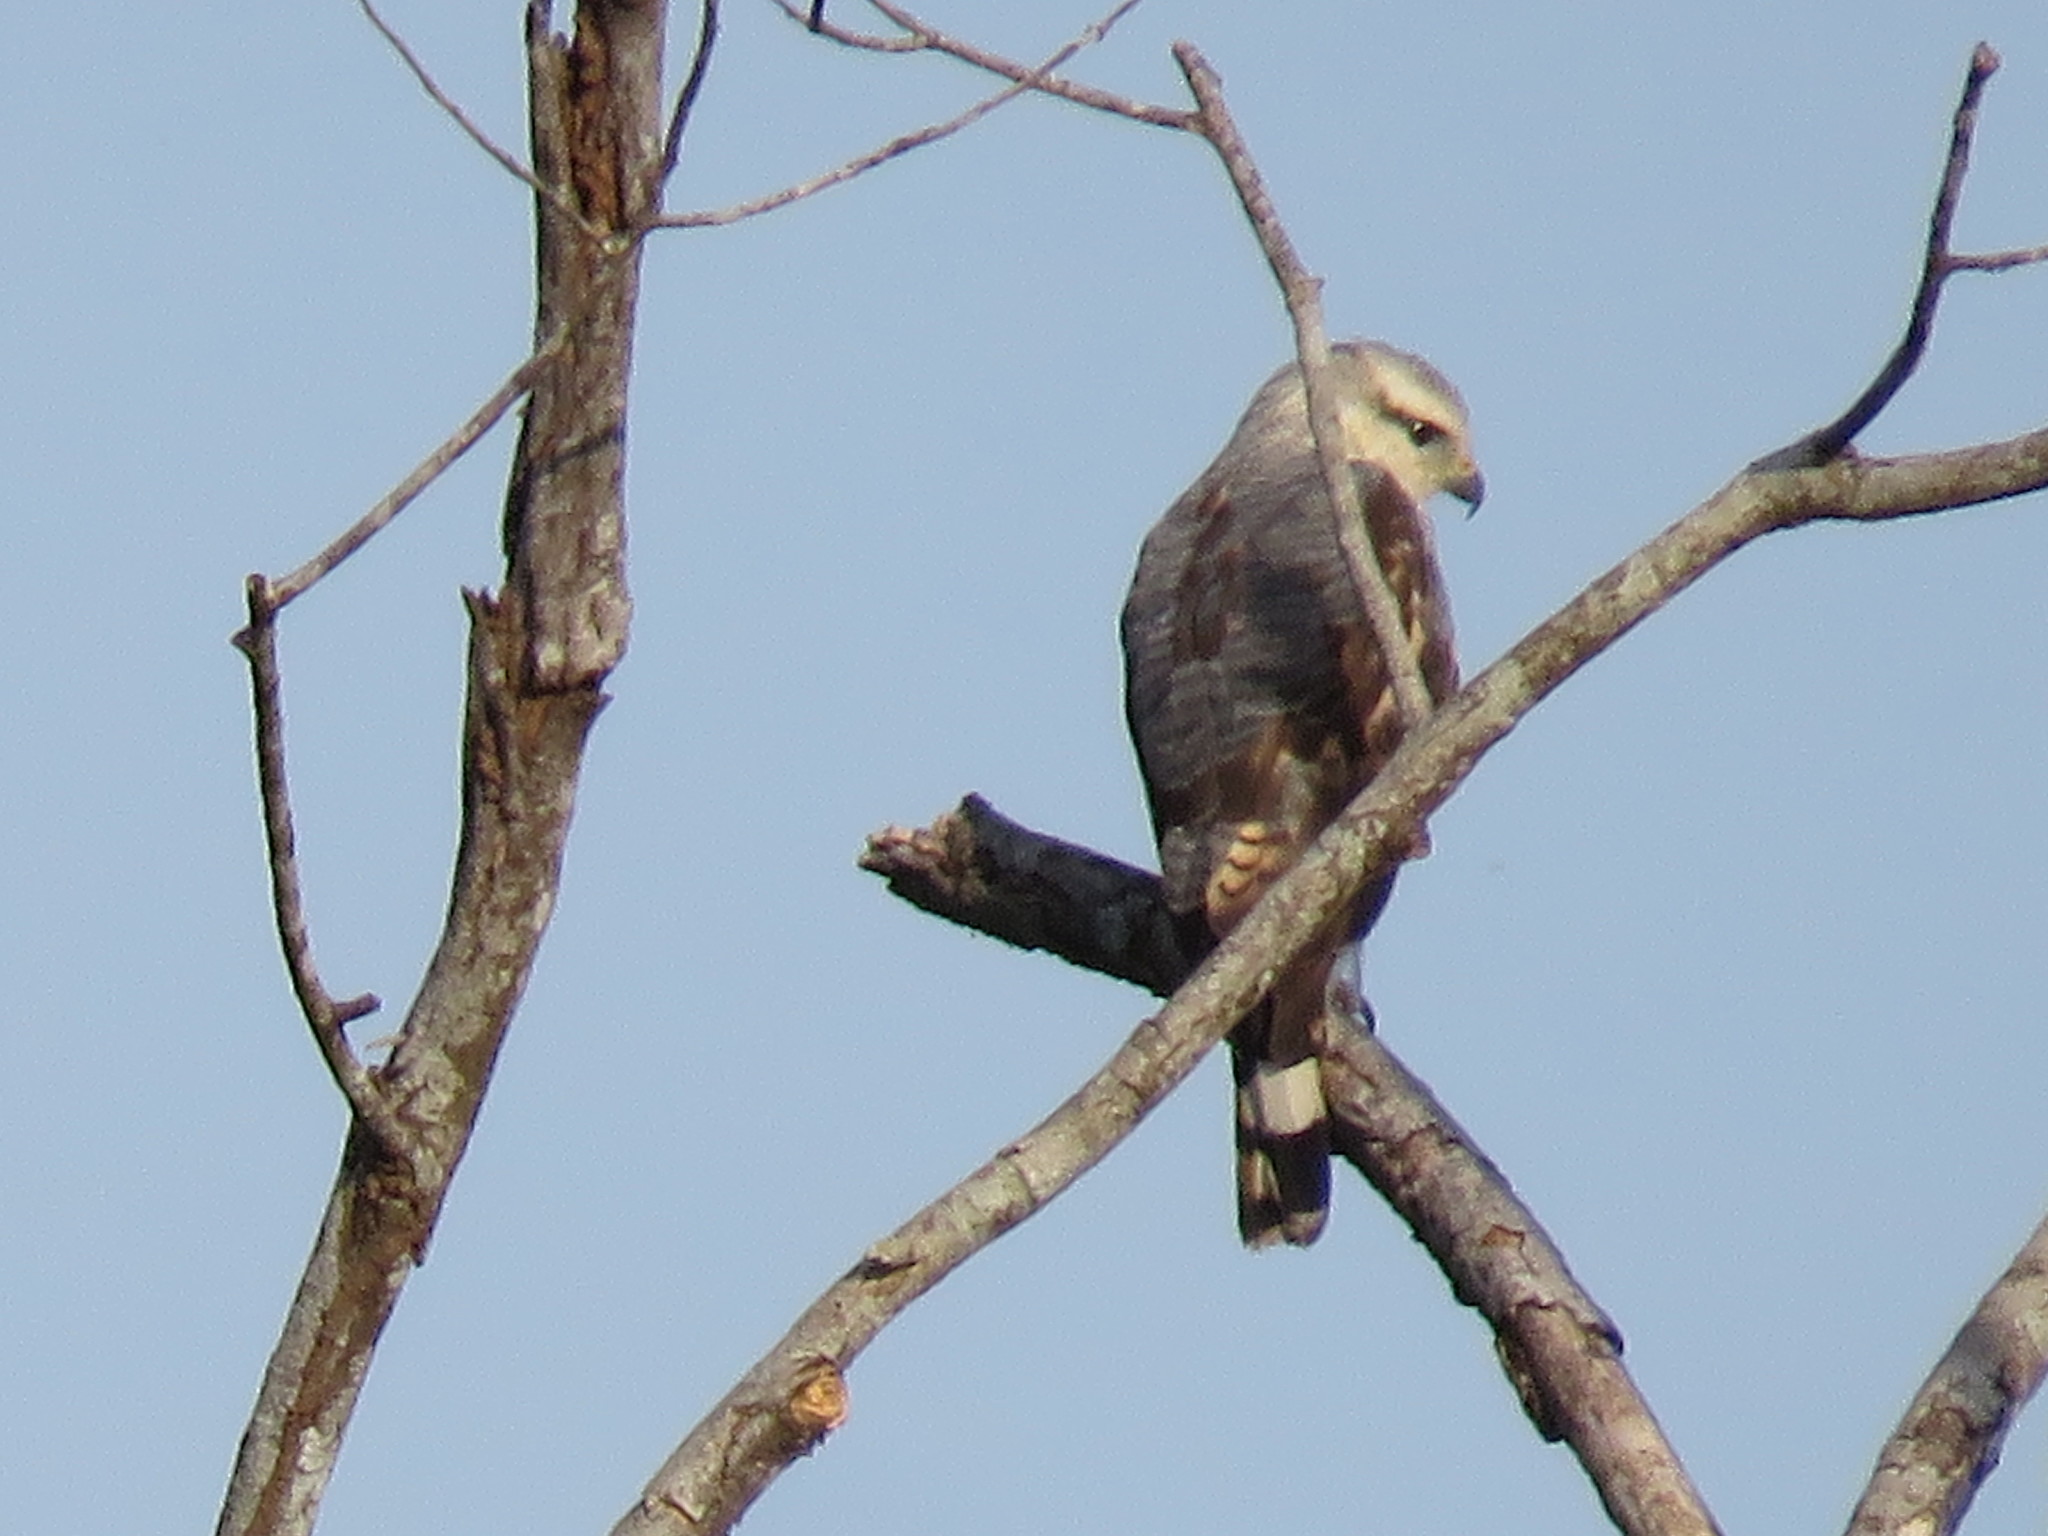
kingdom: Animalia
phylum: Chordata
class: Aves
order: Accipitriformes
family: Accipitridae
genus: Buteo
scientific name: Buteo nitidus
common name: Grey-lined hawk
